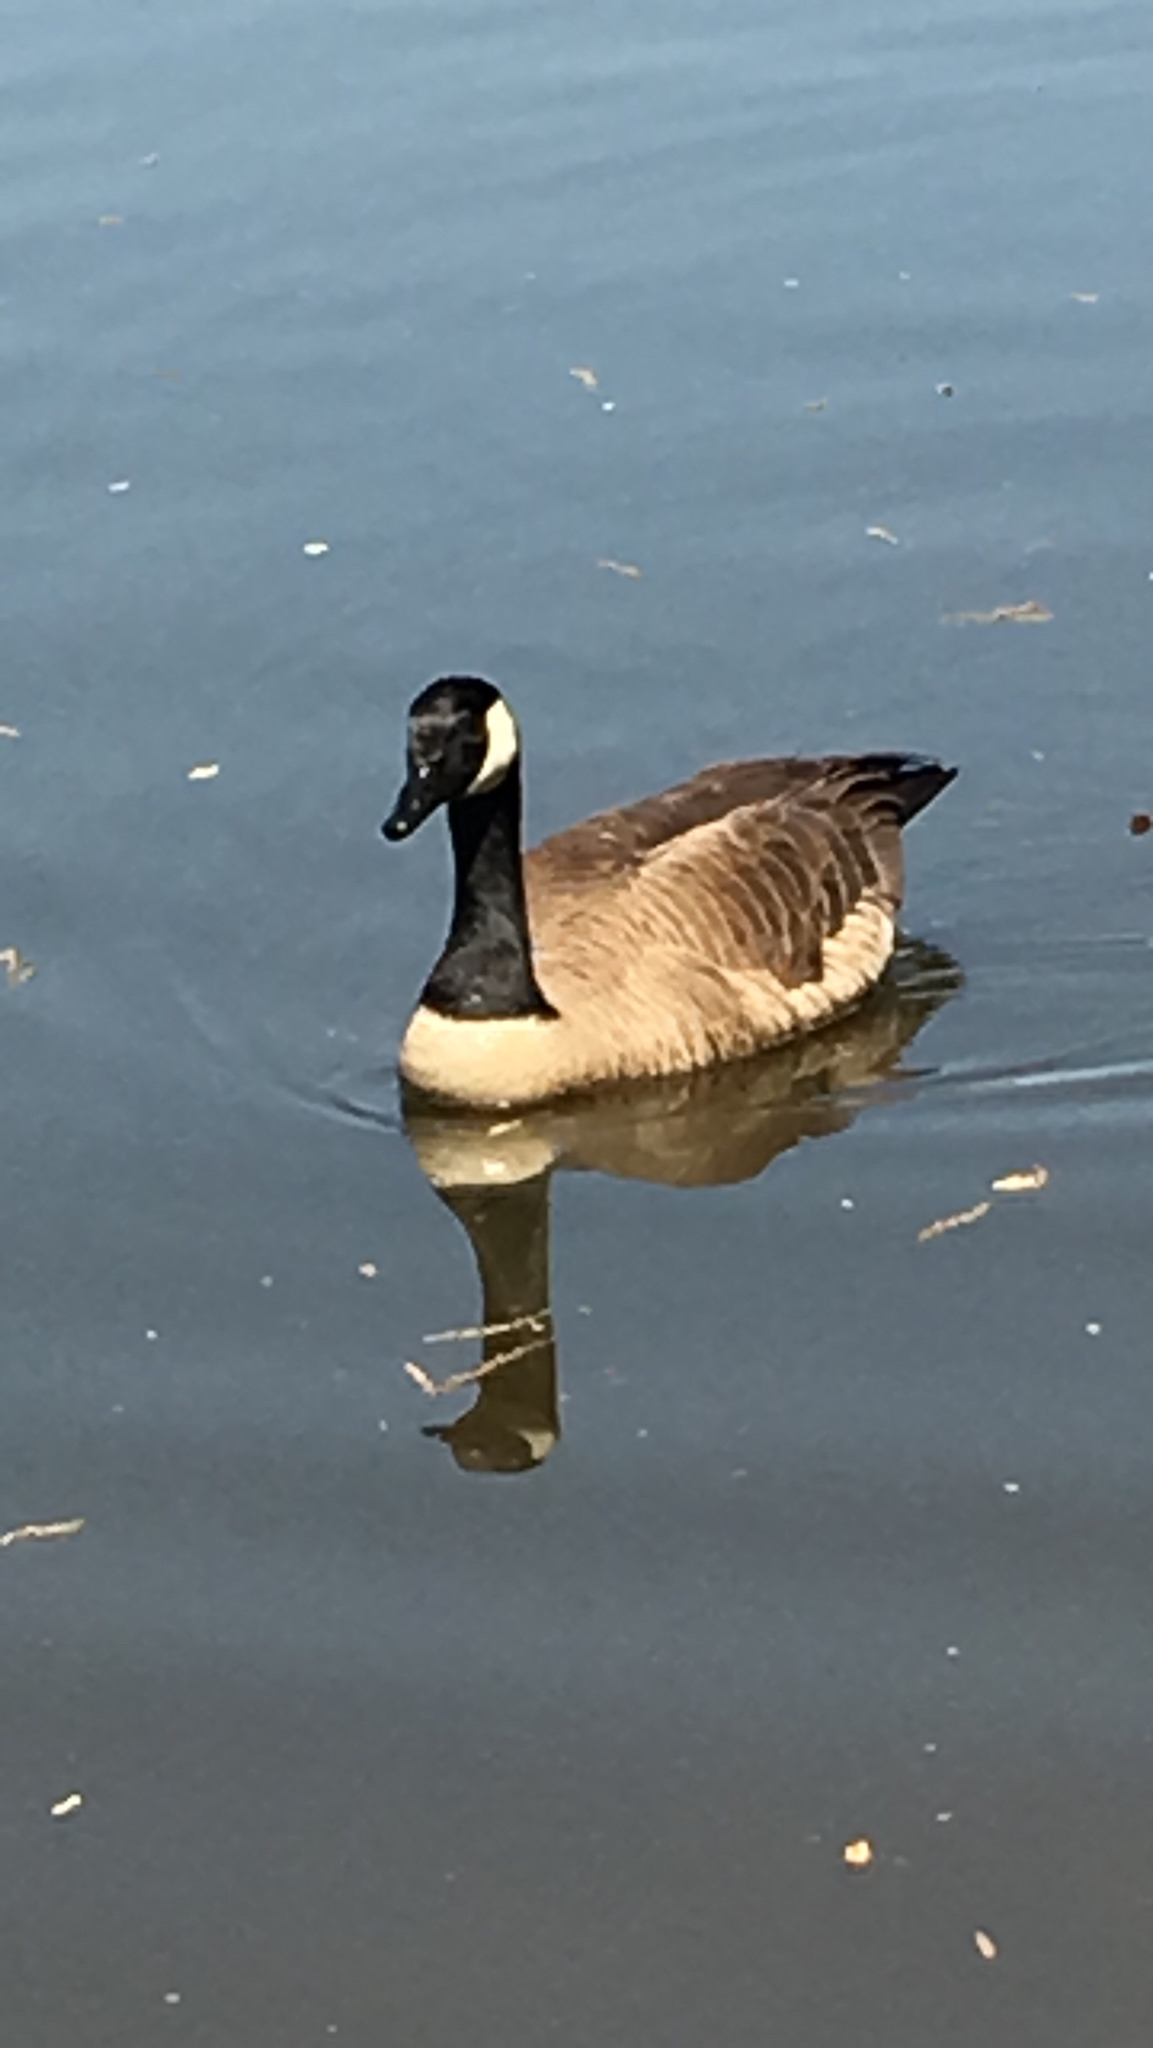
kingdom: Animalia
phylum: Chordata
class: Aves
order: Anseriformes
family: Anatidae
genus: Branta
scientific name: Branta canadensis
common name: Canada goose
